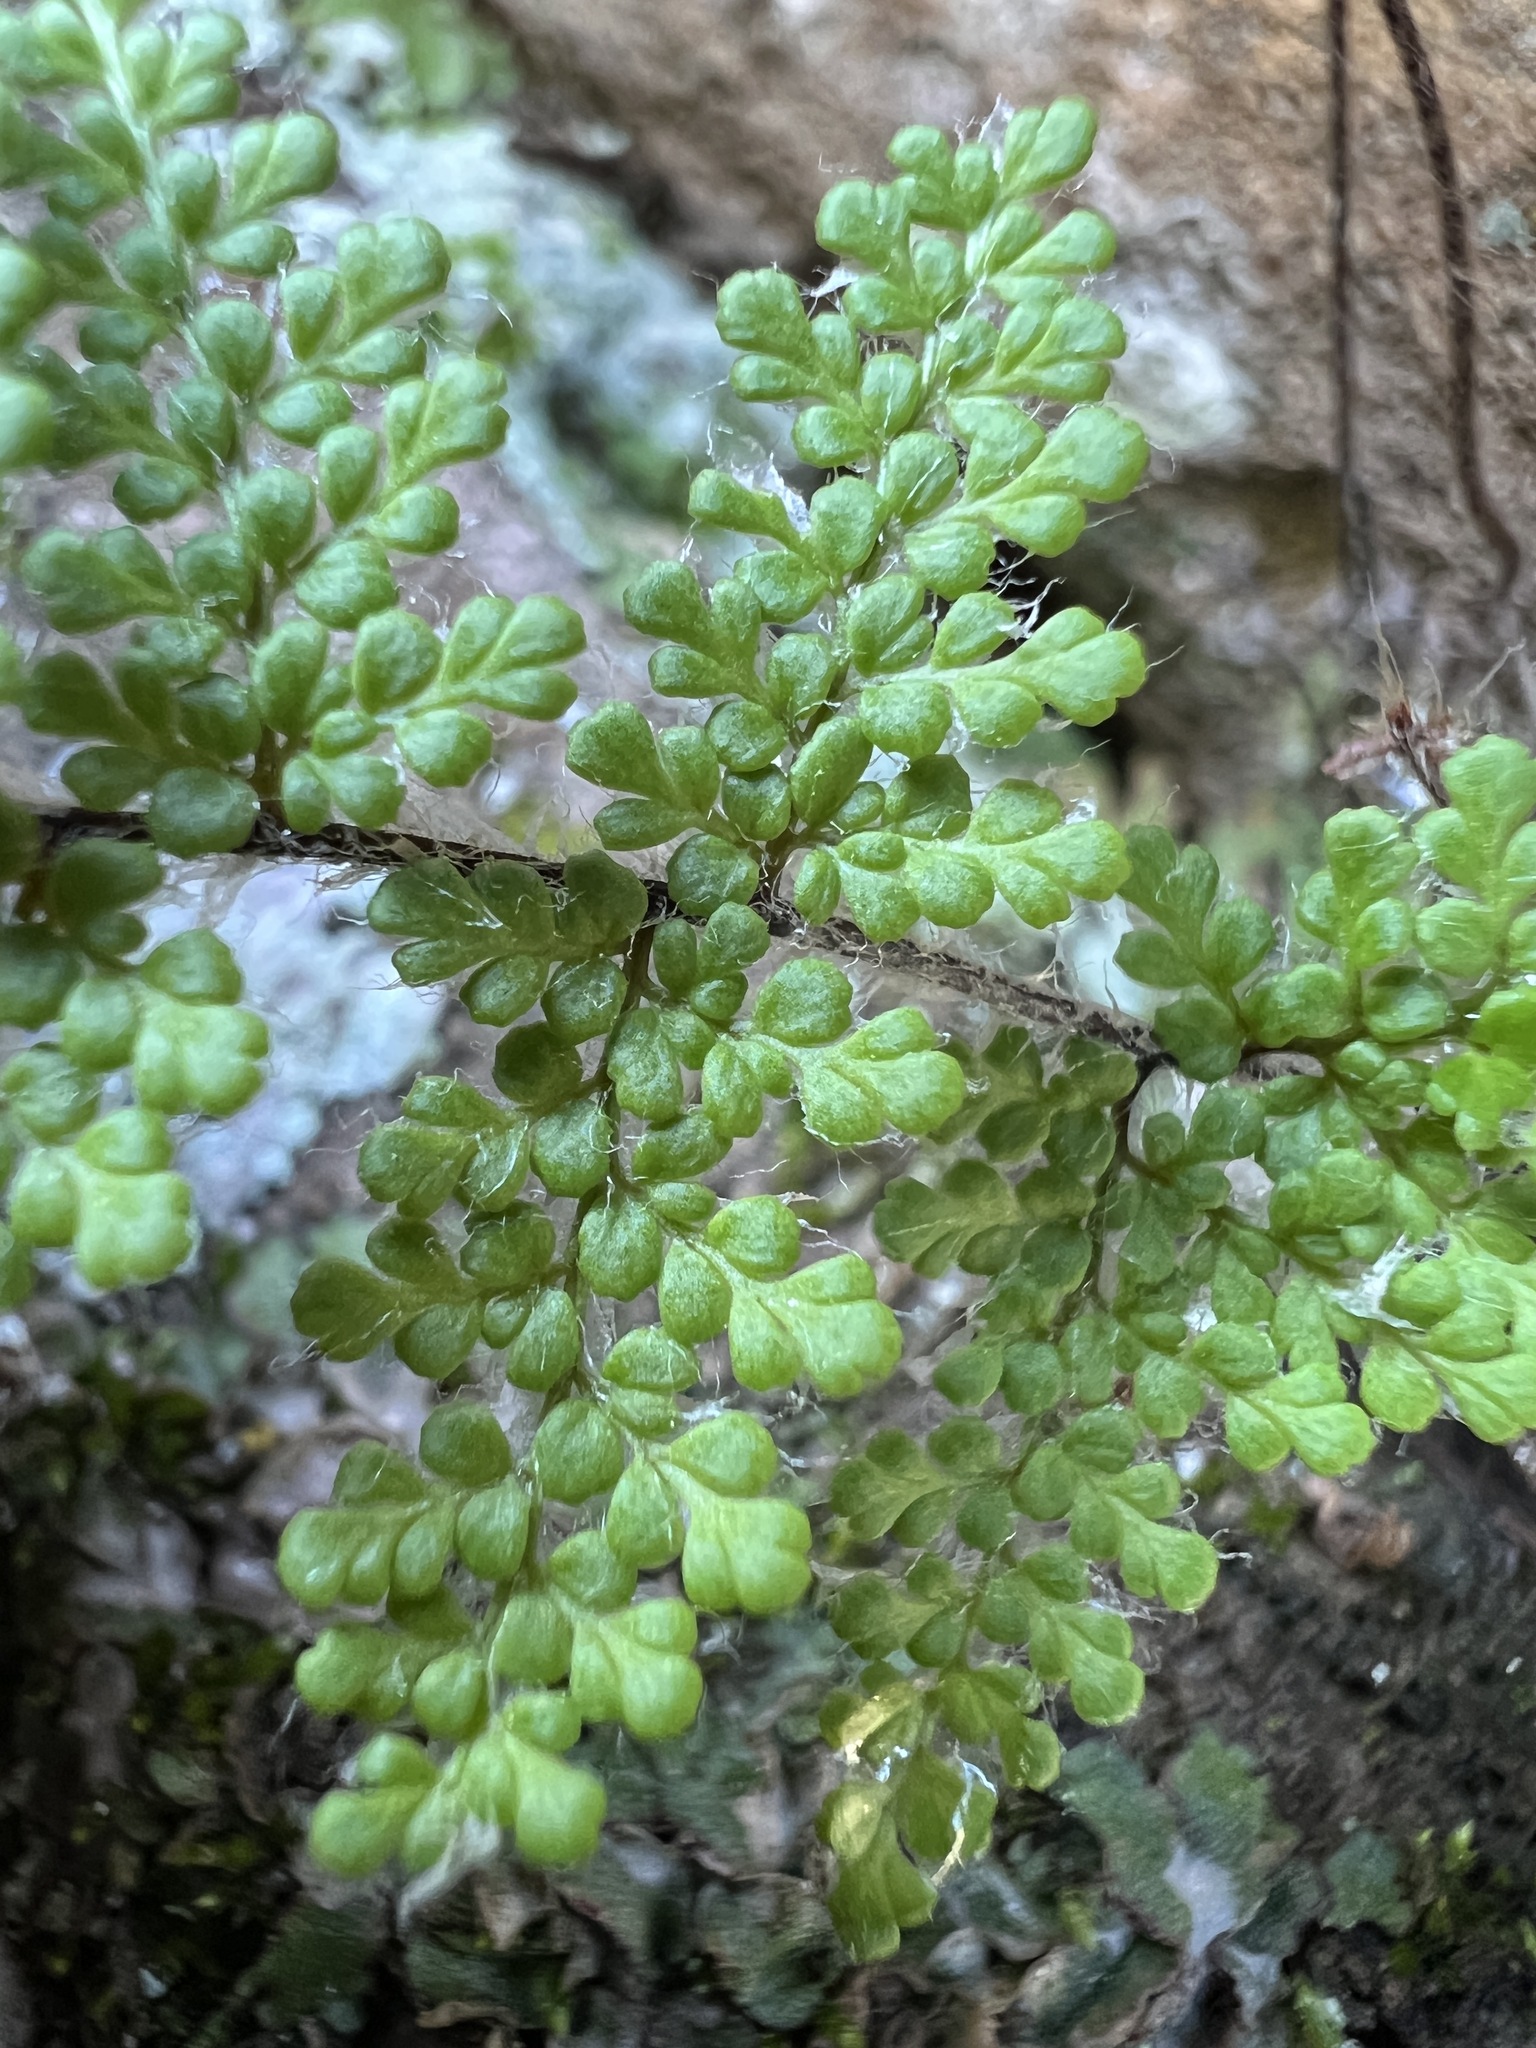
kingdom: Plantae
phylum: Tracheophyta
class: Polypodiopsida
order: Polypodiales
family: Pteridaceae
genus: Myriopteris
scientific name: Myriopteris fendleri
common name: Fendler's lip fern
